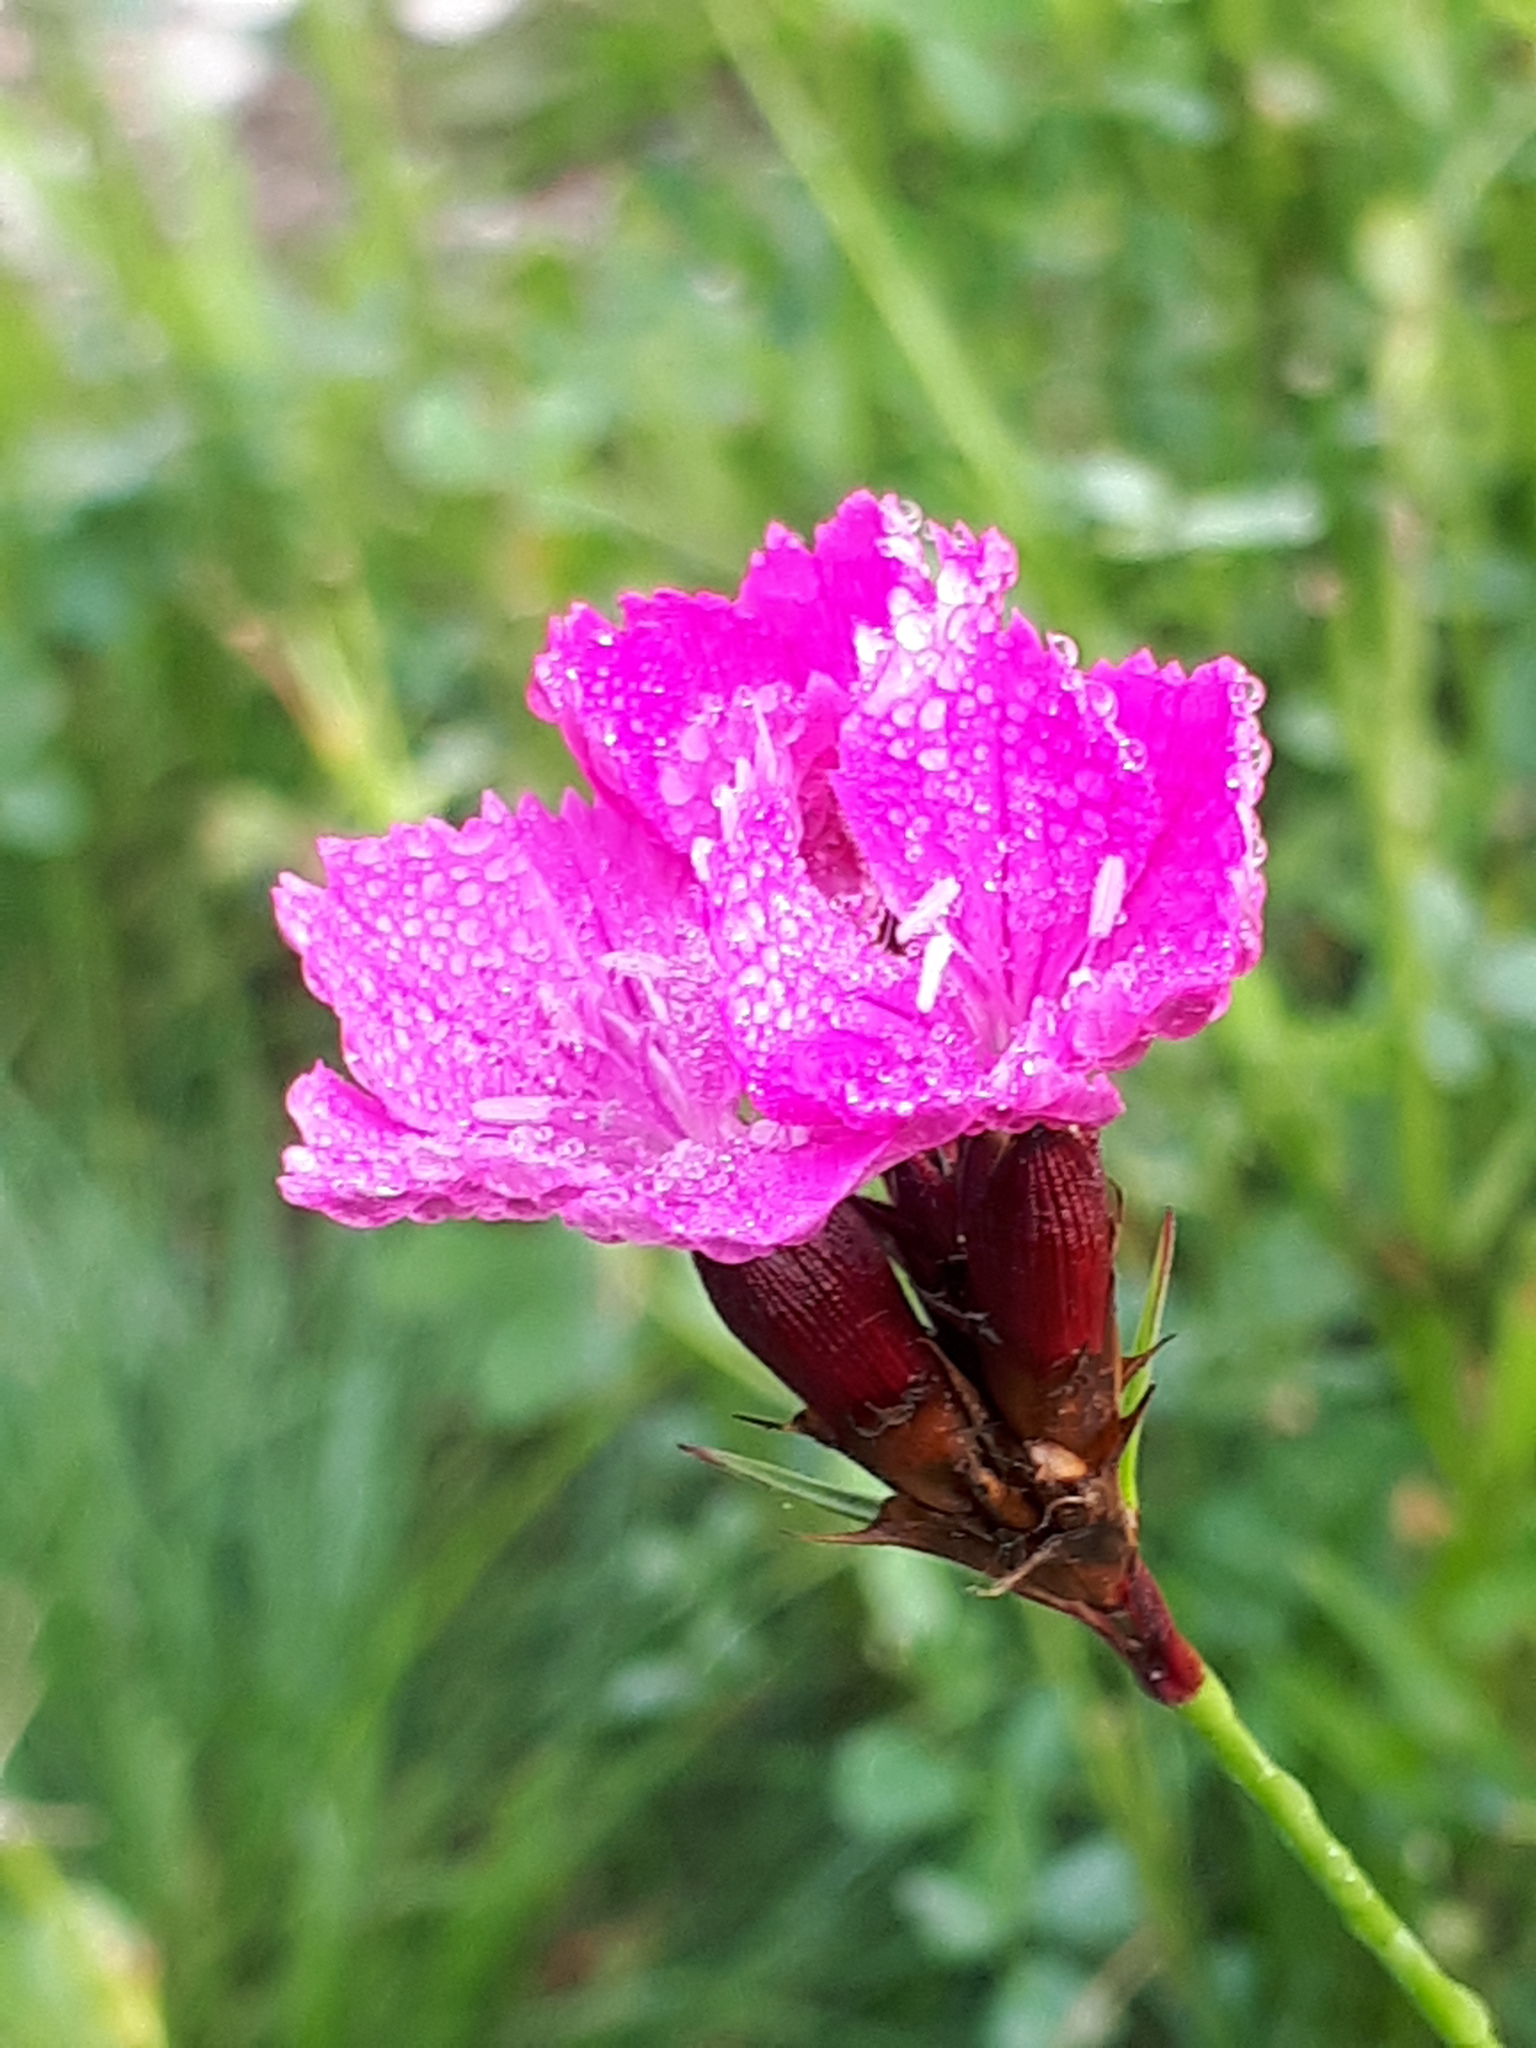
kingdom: Plantae
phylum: Tracheophyta
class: Magnoliopsida
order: Caryophyllales
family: Caryophyllaceae
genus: Dianthus
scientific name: Dianthus carthusianorum
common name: Carthusian pink
